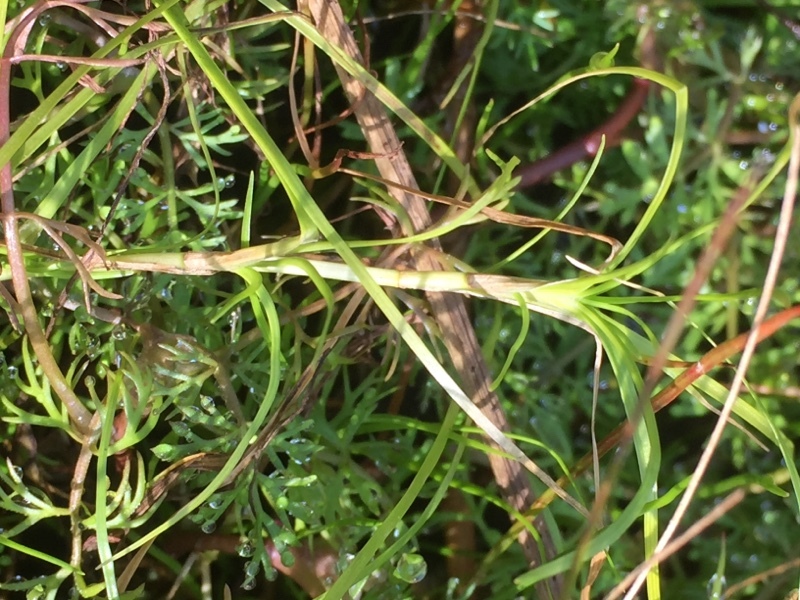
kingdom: Plantae
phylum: Tracheophyta
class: Liliopsida
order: Poales
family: Cyperaceae
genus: Isolepis
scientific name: Isolepis fluitans
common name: Floating club-rush
